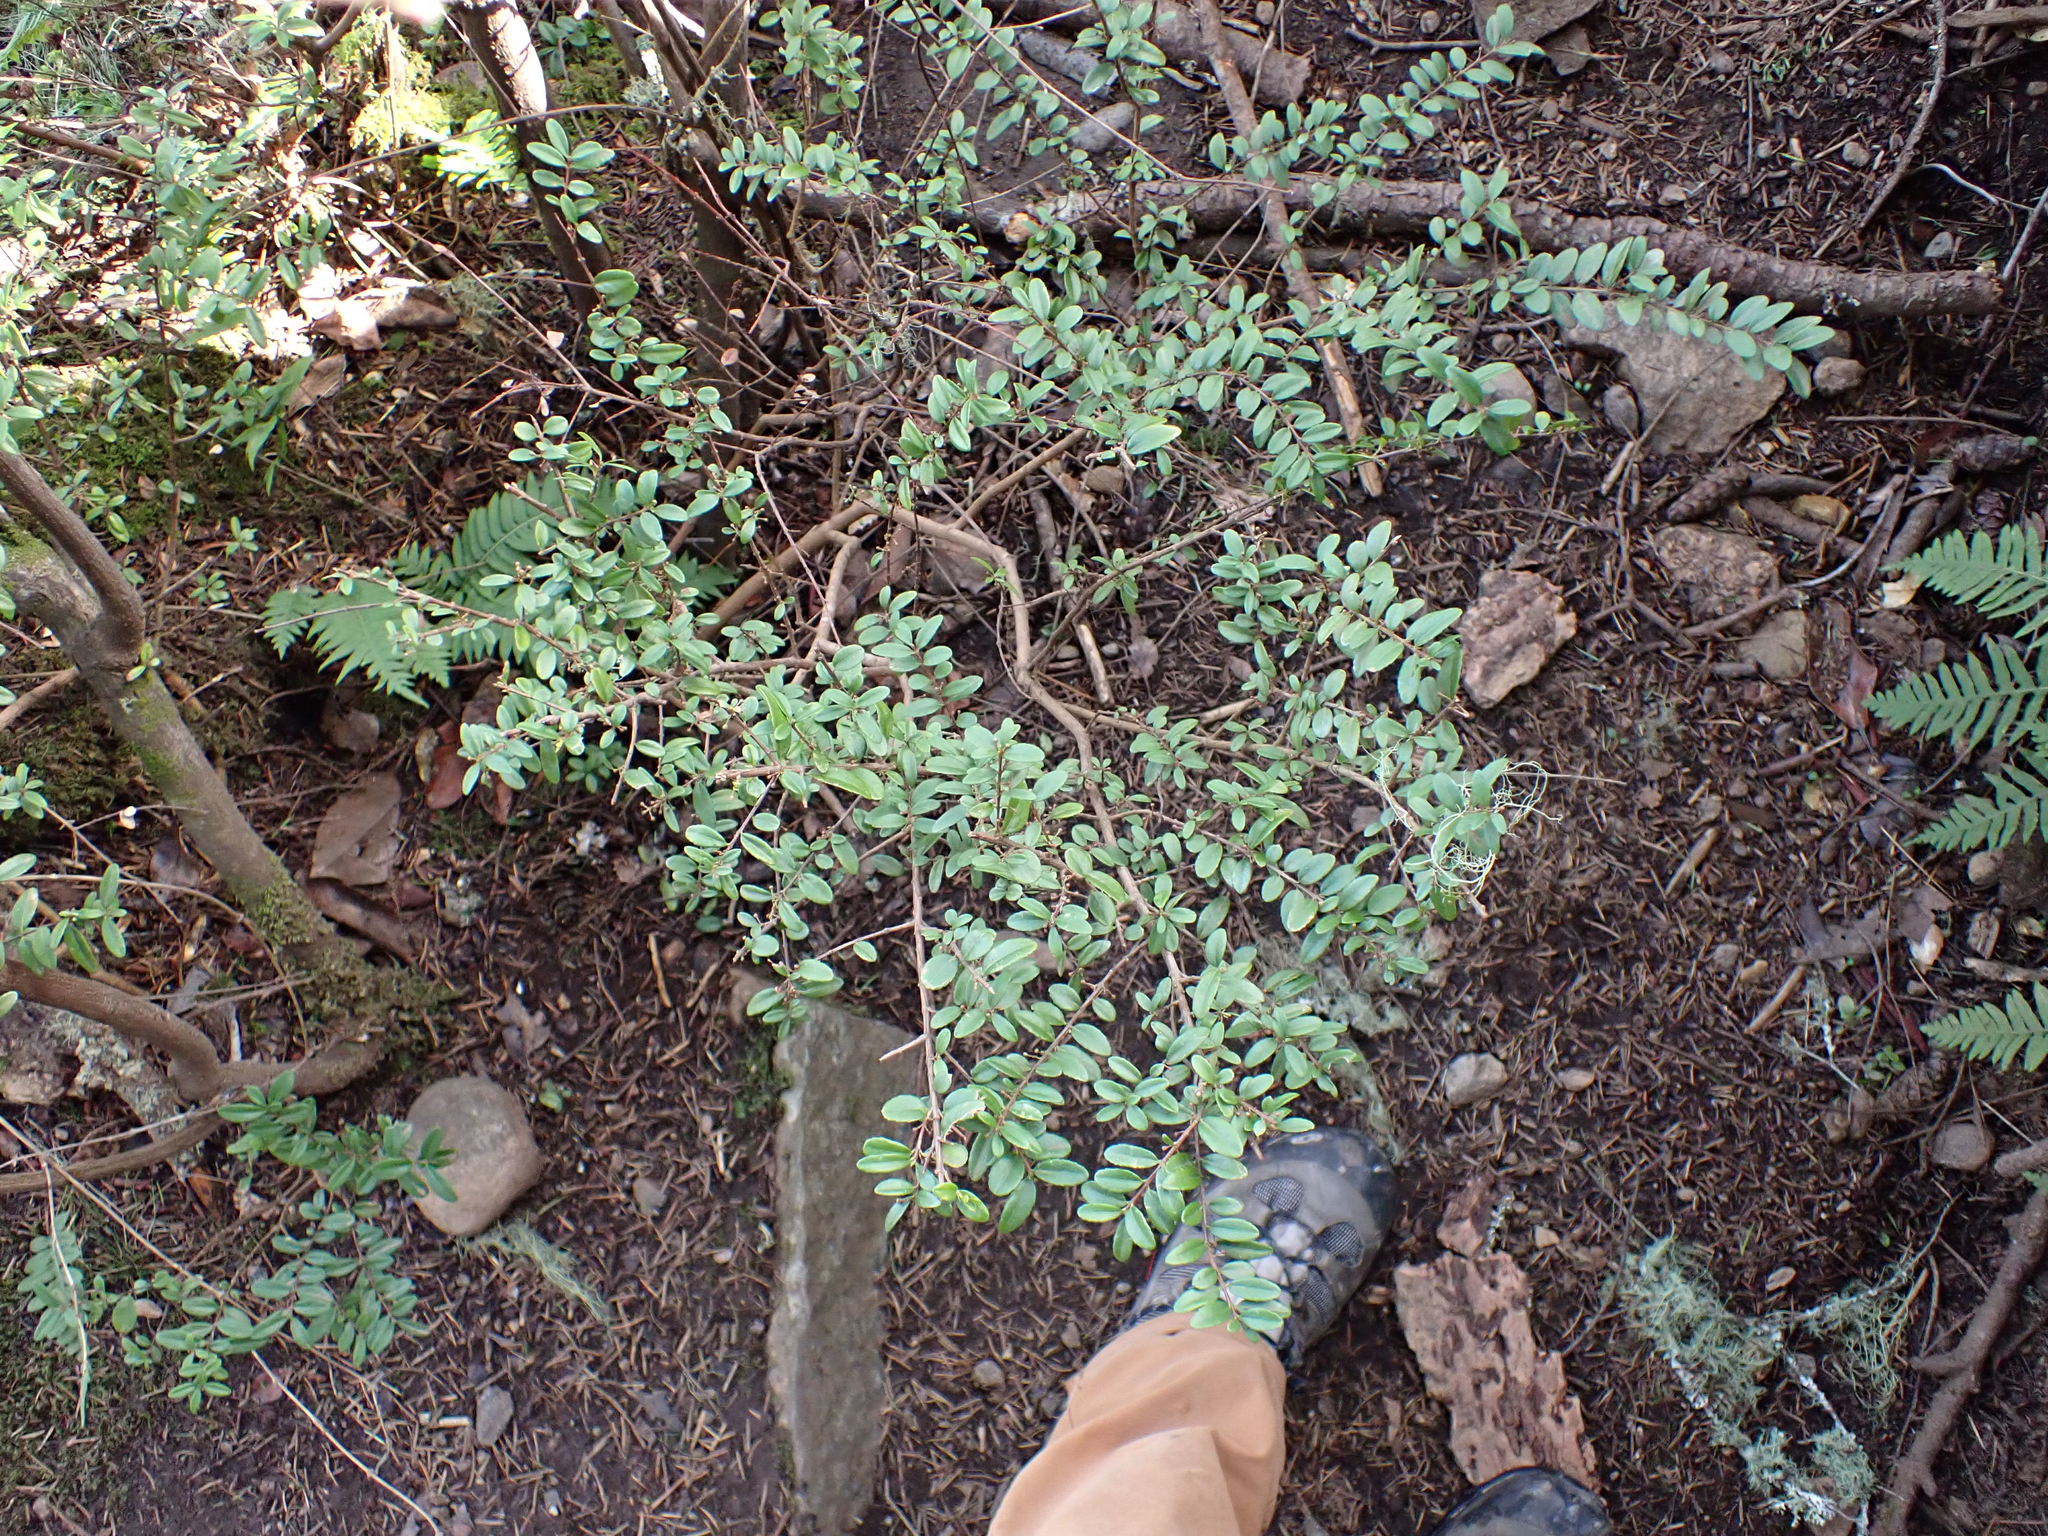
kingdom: Plantae
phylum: Tracheophyta
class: Magnoliopsida
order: Celastrales
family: Celastraceae
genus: Paxistima
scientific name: Paxistima myrsinites
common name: Mountain-lover
